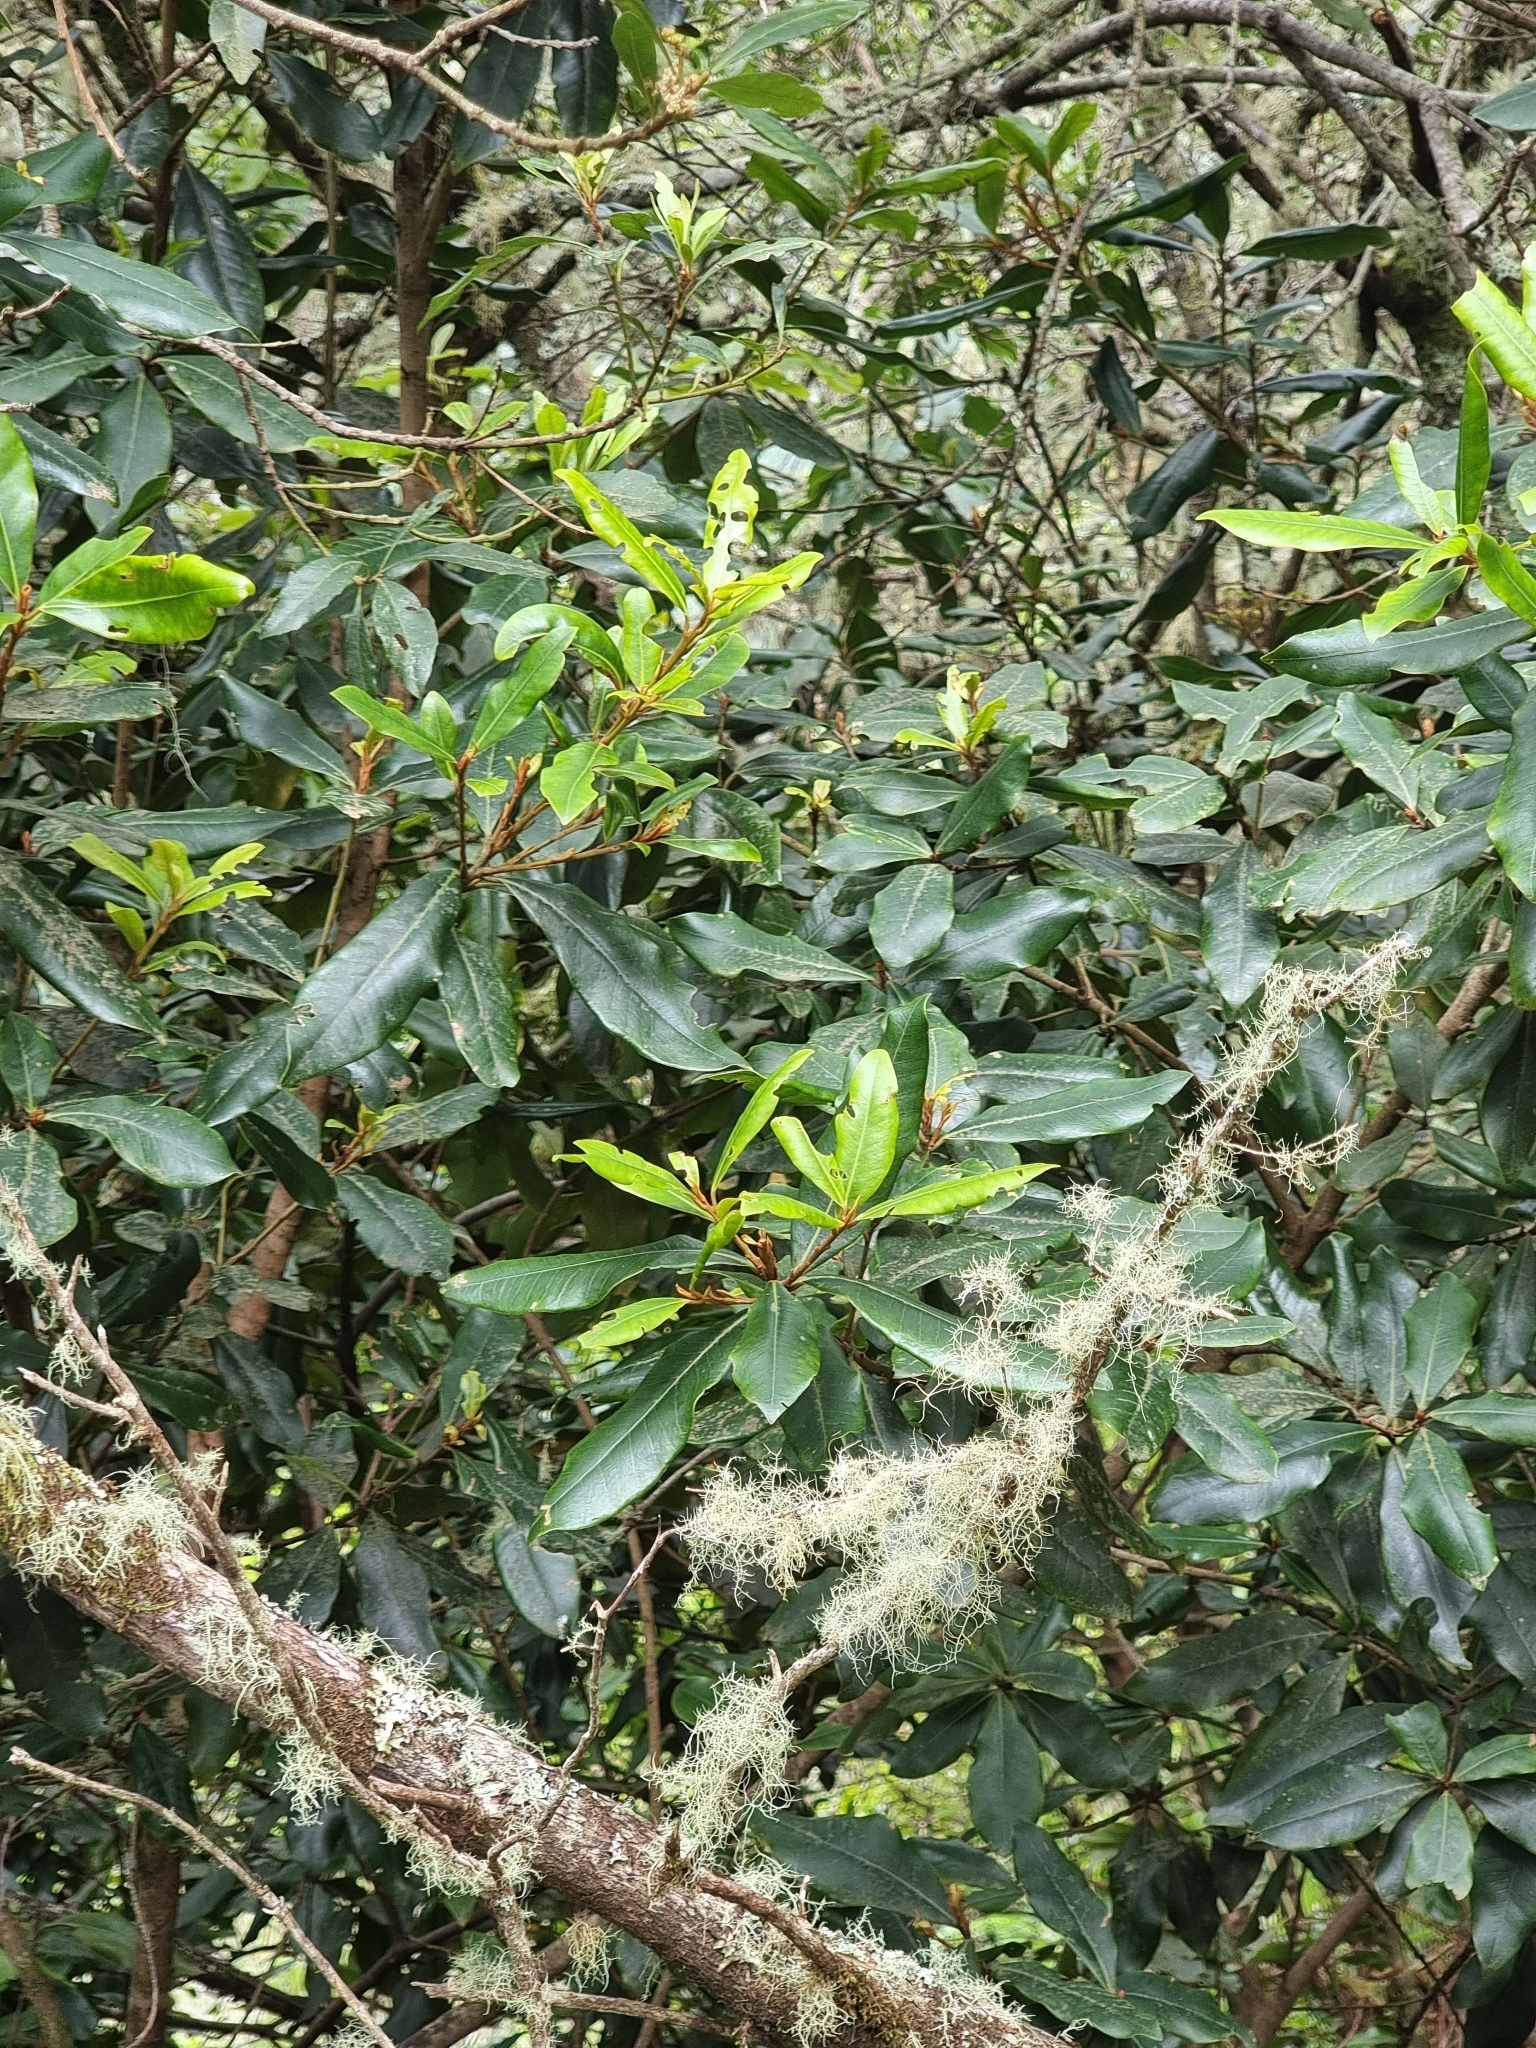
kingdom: Plantae
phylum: Tracheophyta
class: Magnoliopsida
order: Ericales
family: Primulaceae
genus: Heberdenia
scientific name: Heberdenia excelsa
